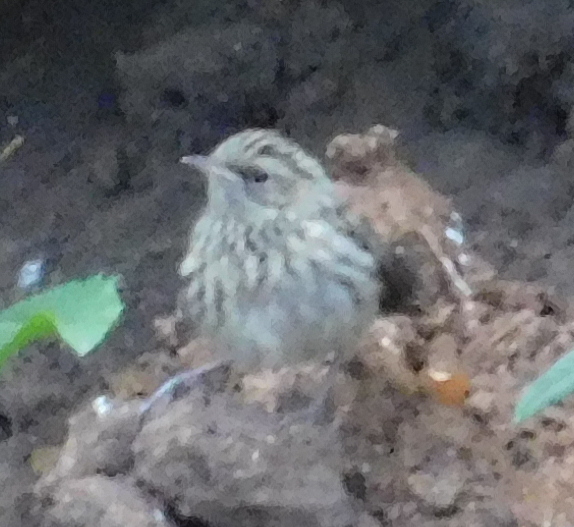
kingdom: Animalia
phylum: Chordata
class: Aves
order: Passeriformes
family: Muscicapidae
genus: Luscinia
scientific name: Luscinia svecica
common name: Bluethroat
